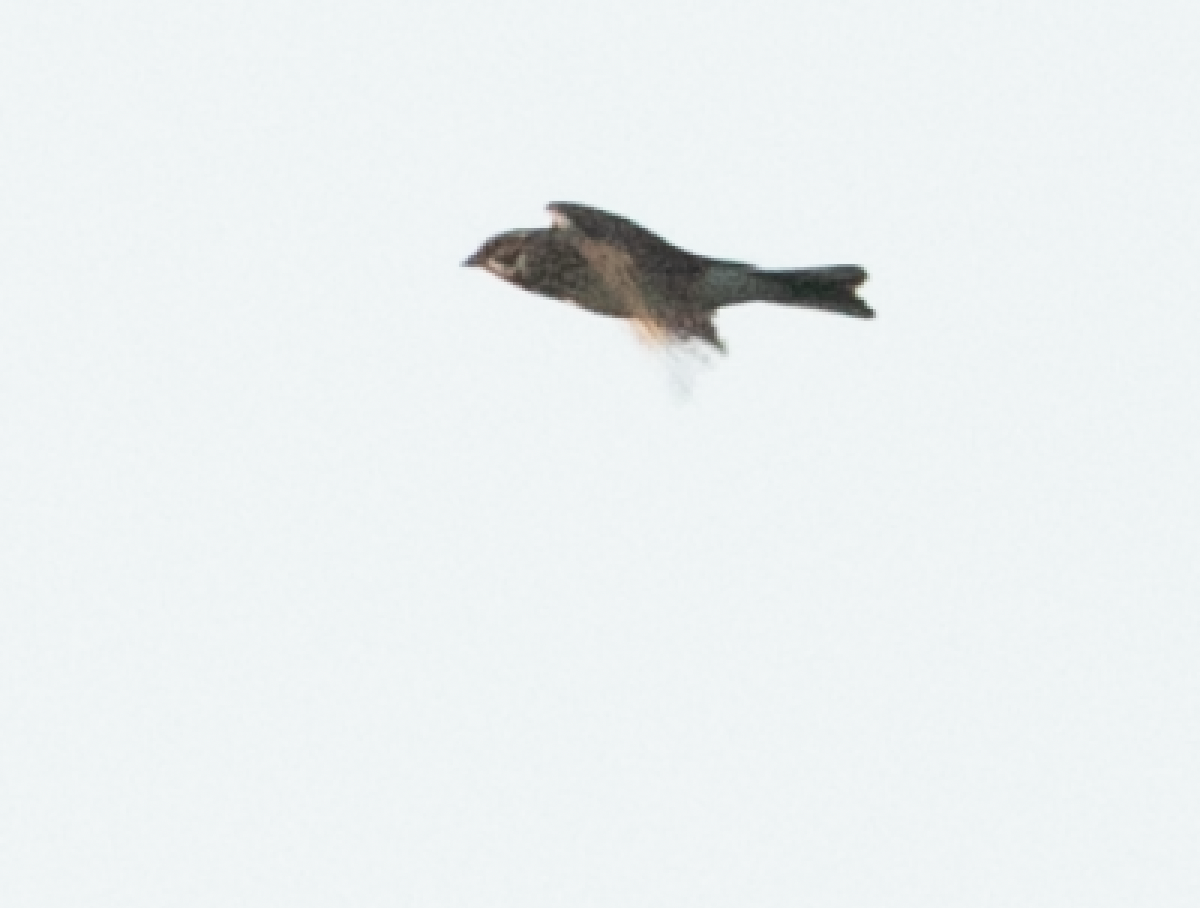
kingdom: Animalia
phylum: Chordata
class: Aves
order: Passeriformes
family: Emberizidae
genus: Emberiza
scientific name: Emberiza schoeniclus
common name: Reed bunting
